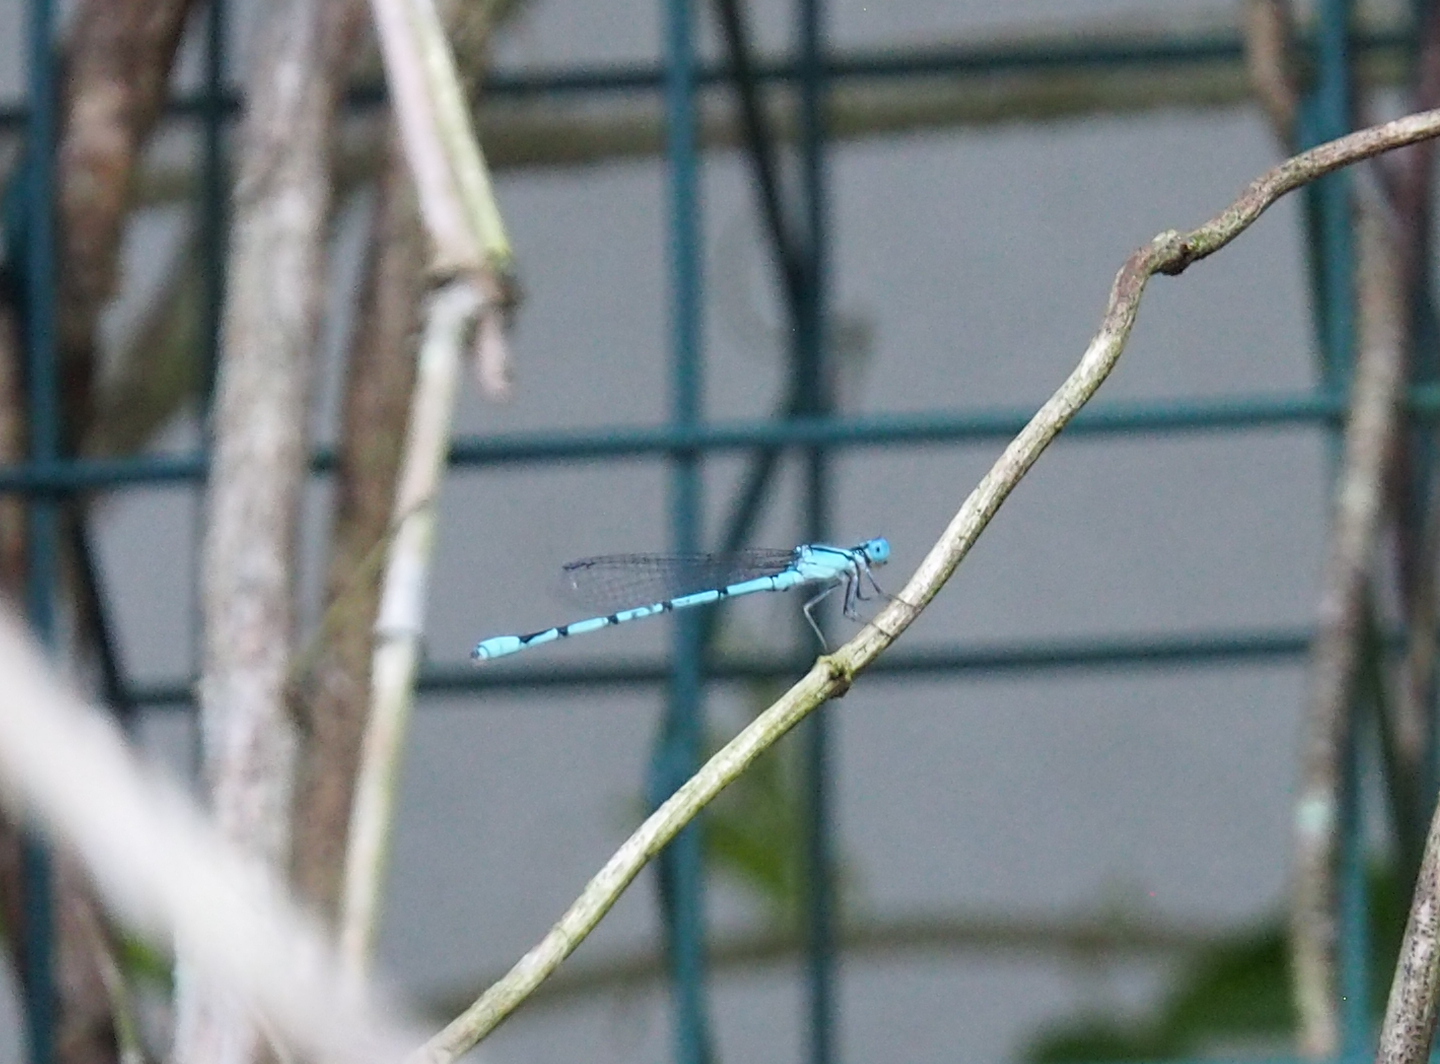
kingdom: Animalia
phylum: Arthropoda
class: Insecta
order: Odonata
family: Coenagrionidae
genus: Enallagma
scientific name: Enallagma doubledayi
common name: Atlantic bluet
